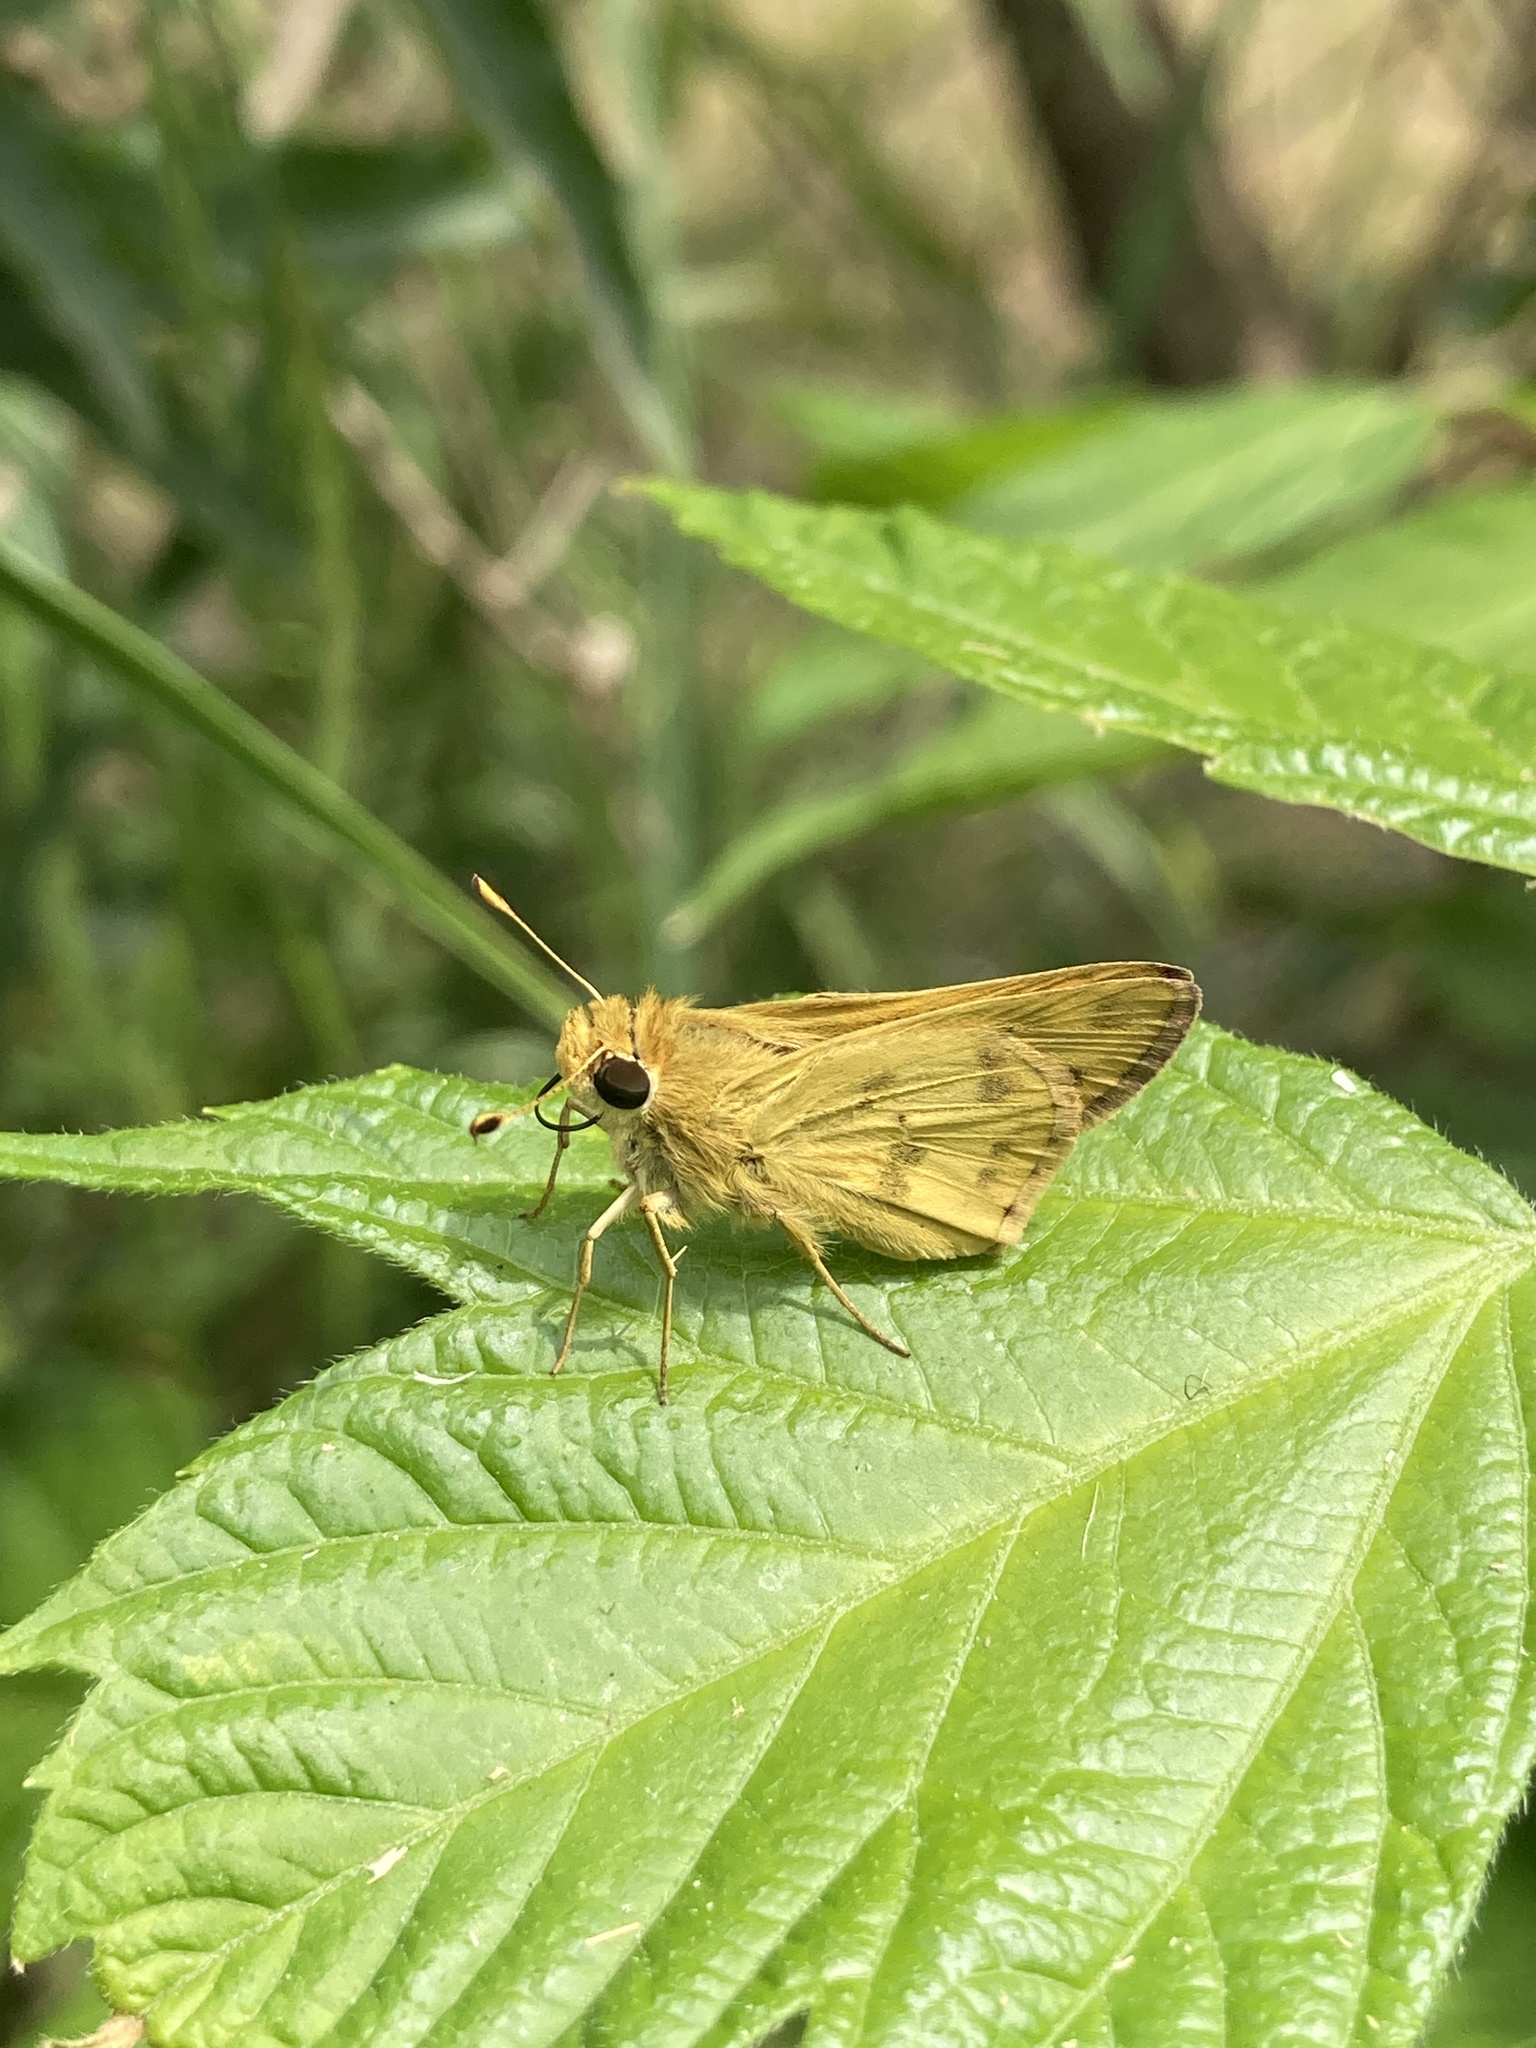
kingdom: Animalia
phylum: Arthropoda
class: Insecta
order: Lepidoptera
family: Hesperiidae
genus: Polites
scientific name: Polites vibex
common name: Whirlabout
